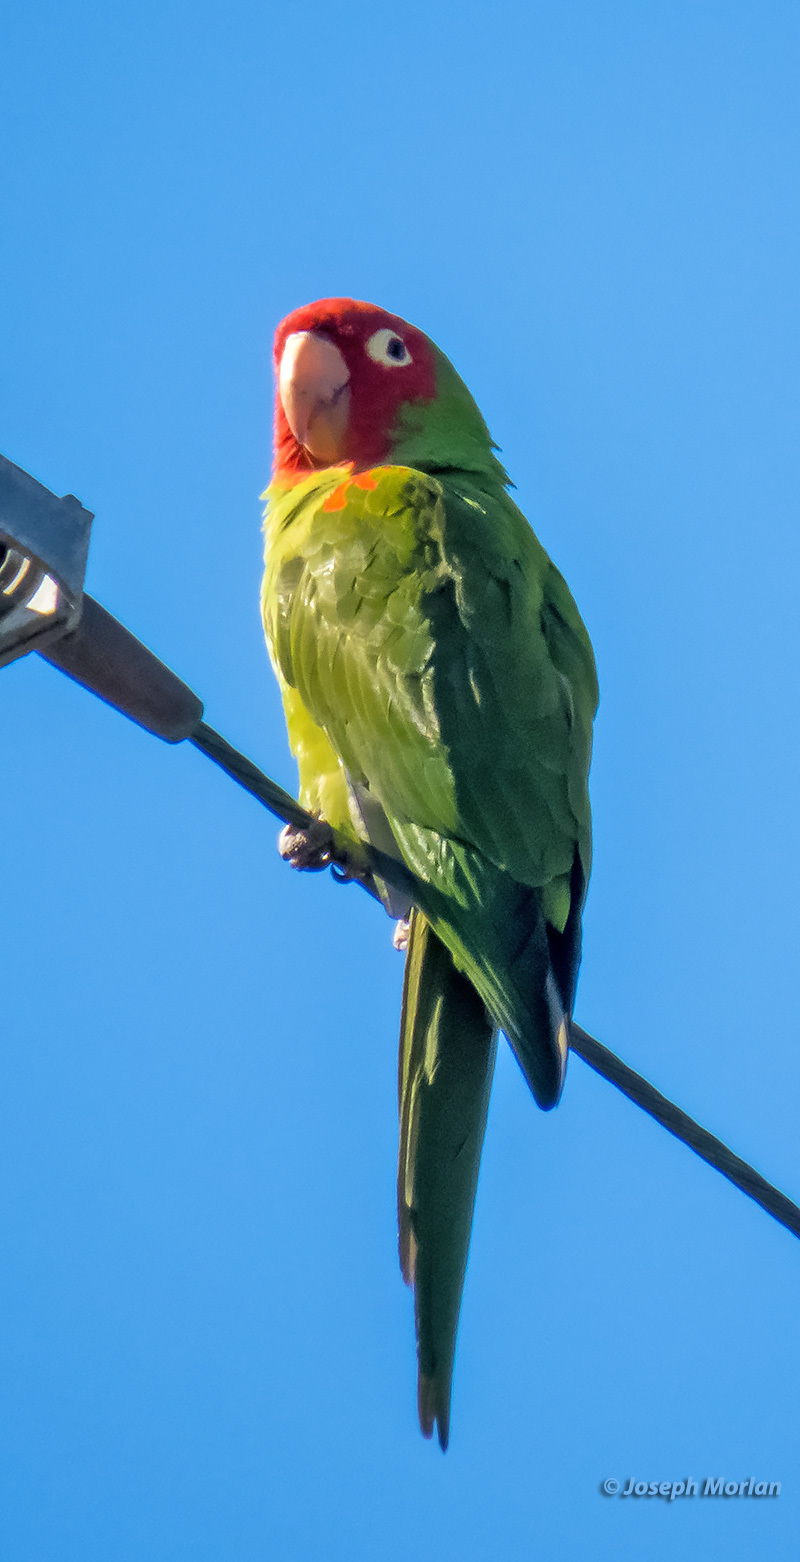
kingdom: Animalia
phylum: Chordata
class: Aves
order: Psittaciformes
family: Psittacidae
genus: Aratinga
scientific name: Aratinga erythrogenys
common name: Red-masked parakeet
